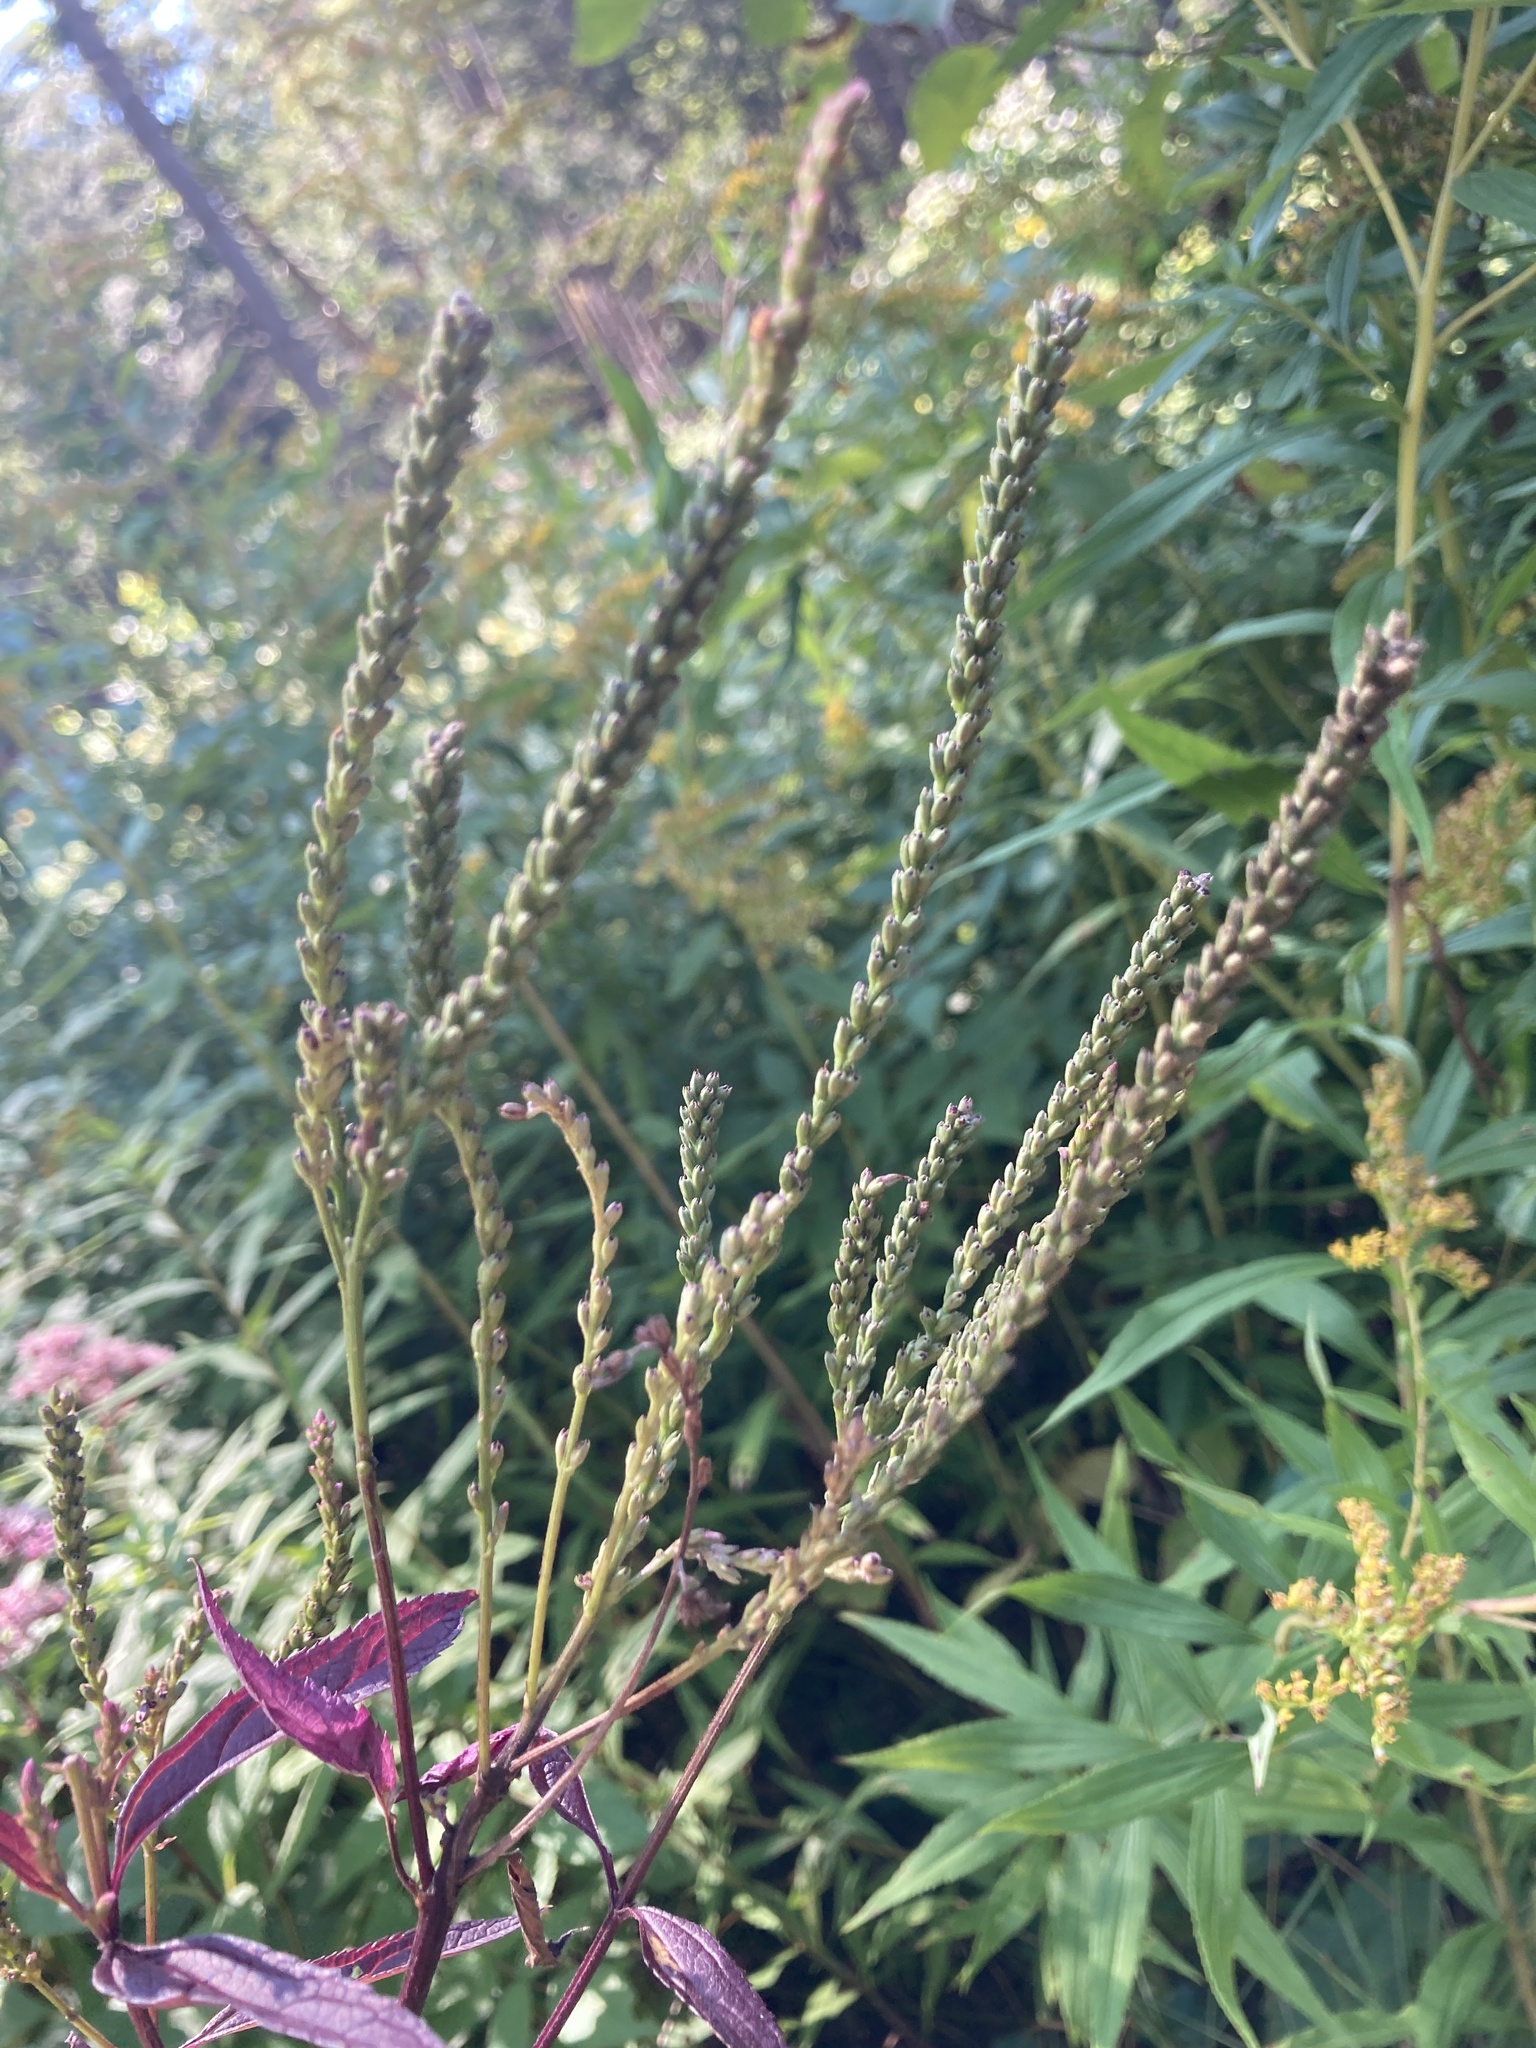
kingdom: Plantae
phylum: Tracheophyta
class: Magnoliopsida
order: Lamiales
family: Verbenaceae
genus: Verbena
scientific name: Verbena hastata
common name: American blue vervain
